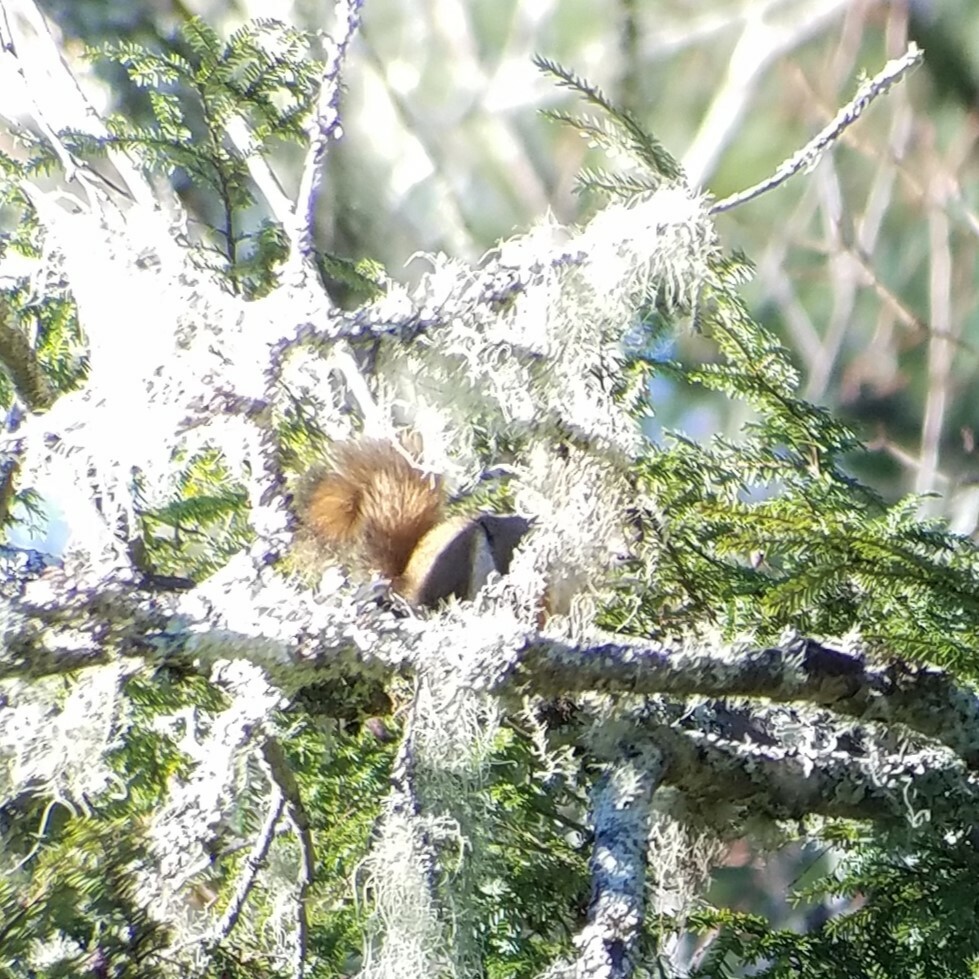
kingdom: Animalia
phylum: Chordata
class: Mammalia
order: Rodentia
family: Sciuridae
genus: Tamiasciurus
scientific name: Tamiasciurus hudsonicus
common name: Red squirrel
